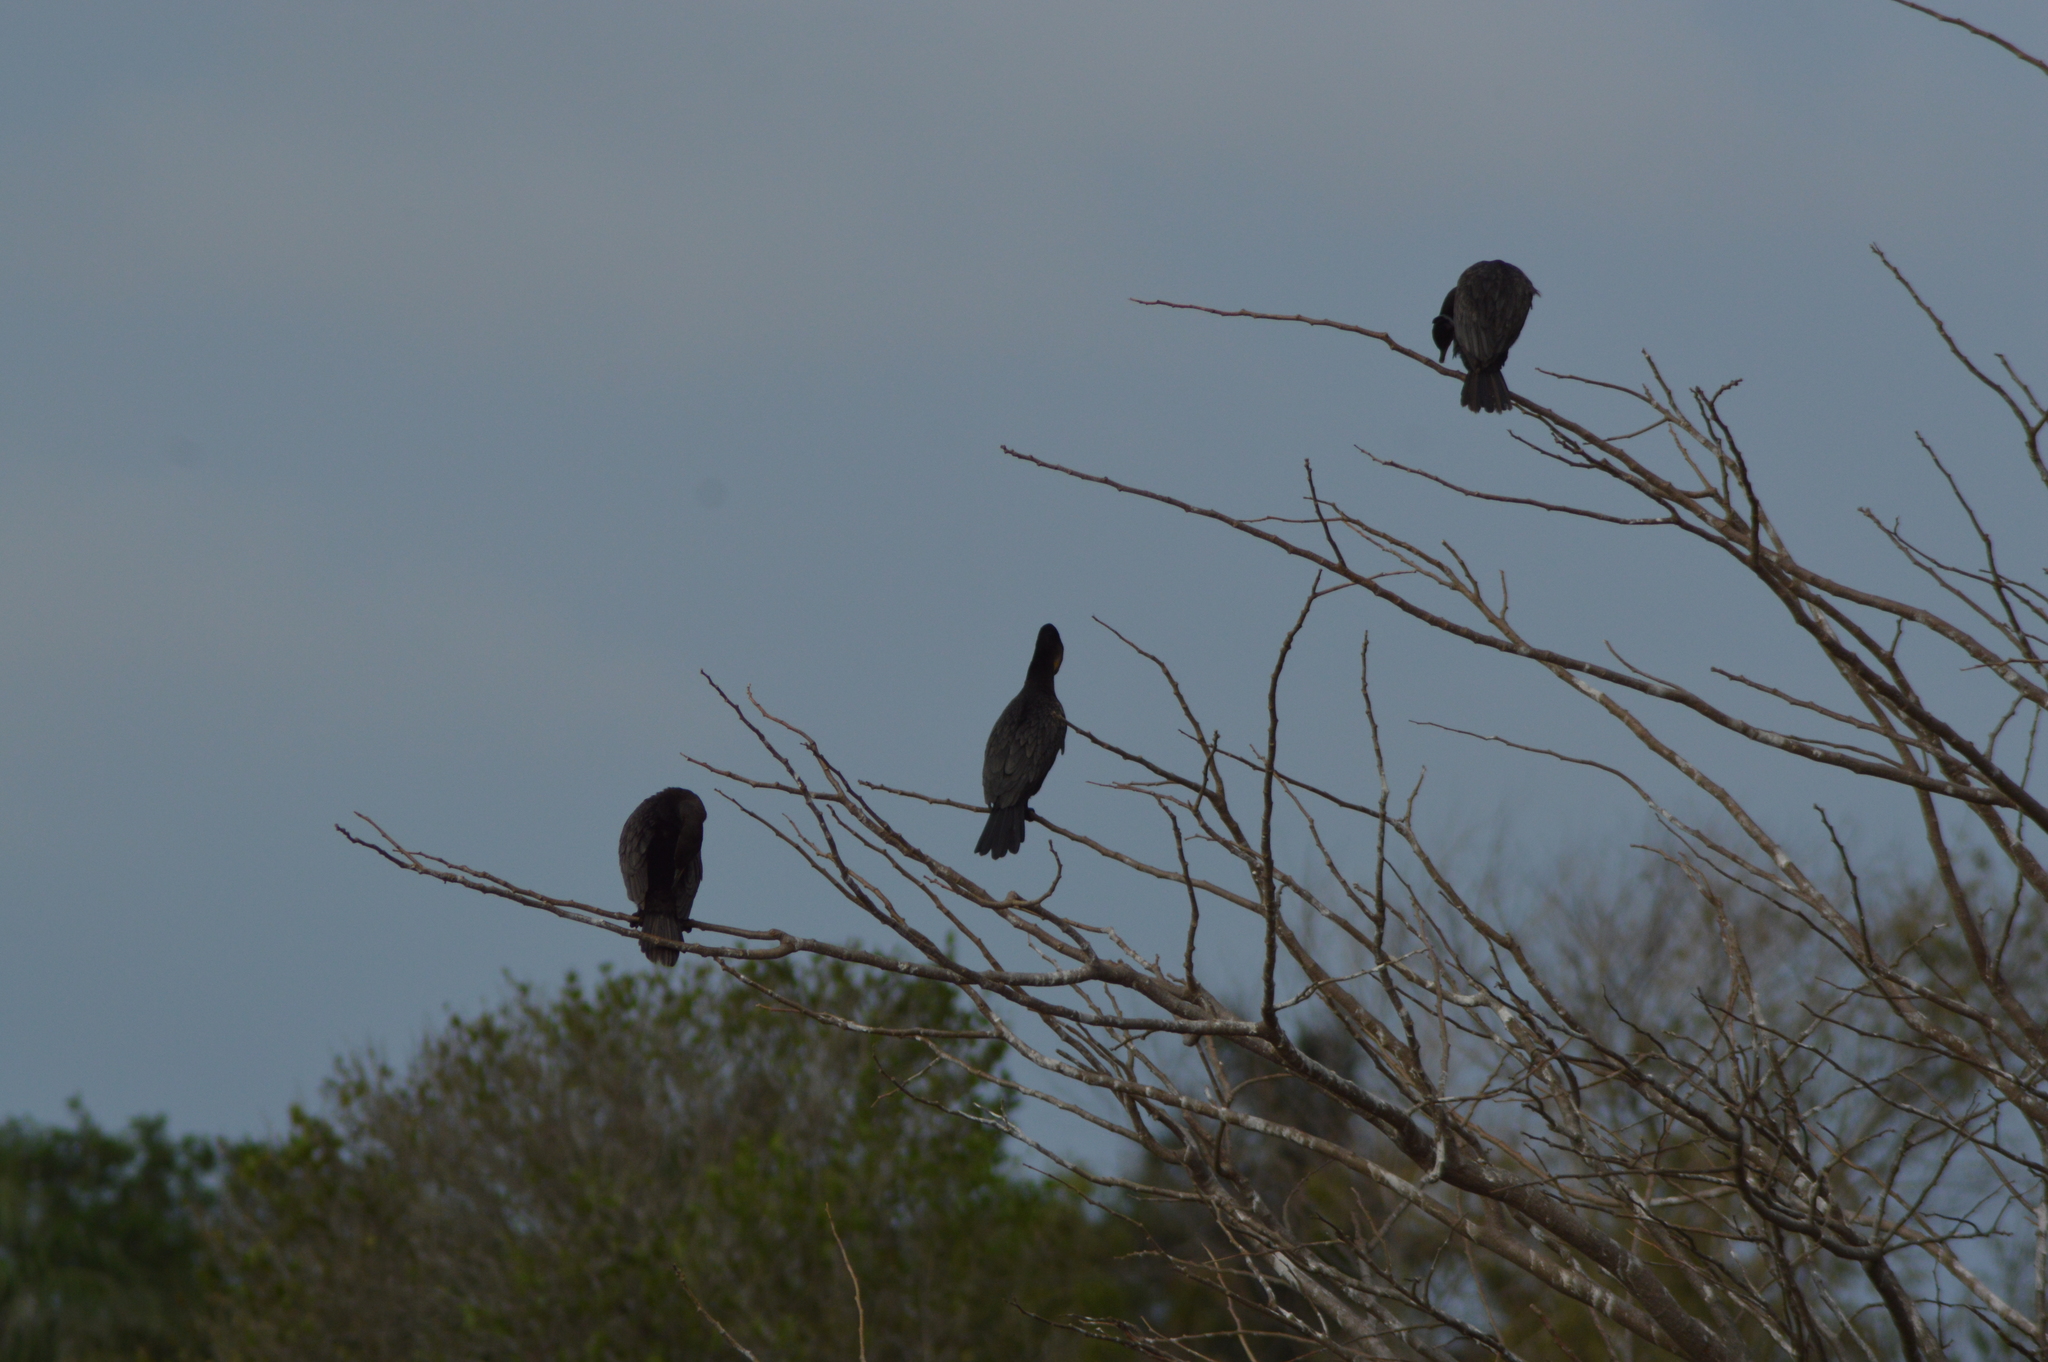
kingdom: Animalia
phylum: Chordata
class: Aves
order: Suliformes
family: Phalacrocoracidae
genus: Phalacrocorax
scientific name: Phalacrocorax brasilianus
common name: Neotropic cormorant
